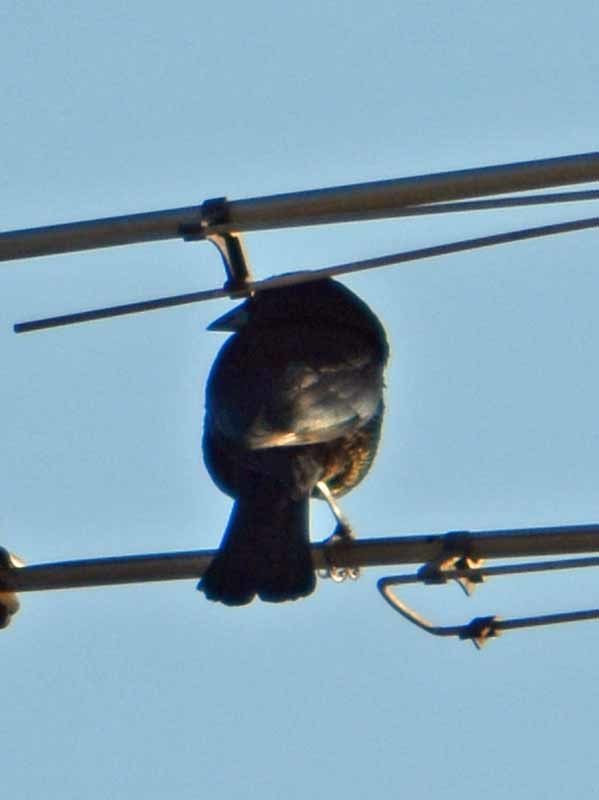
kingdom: Animalia
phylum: Chordata
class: Aves
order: Passeriformes
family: Icteridae
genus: Molothrus
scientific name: Molothrus aeneus
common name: Bronzed cowbird
